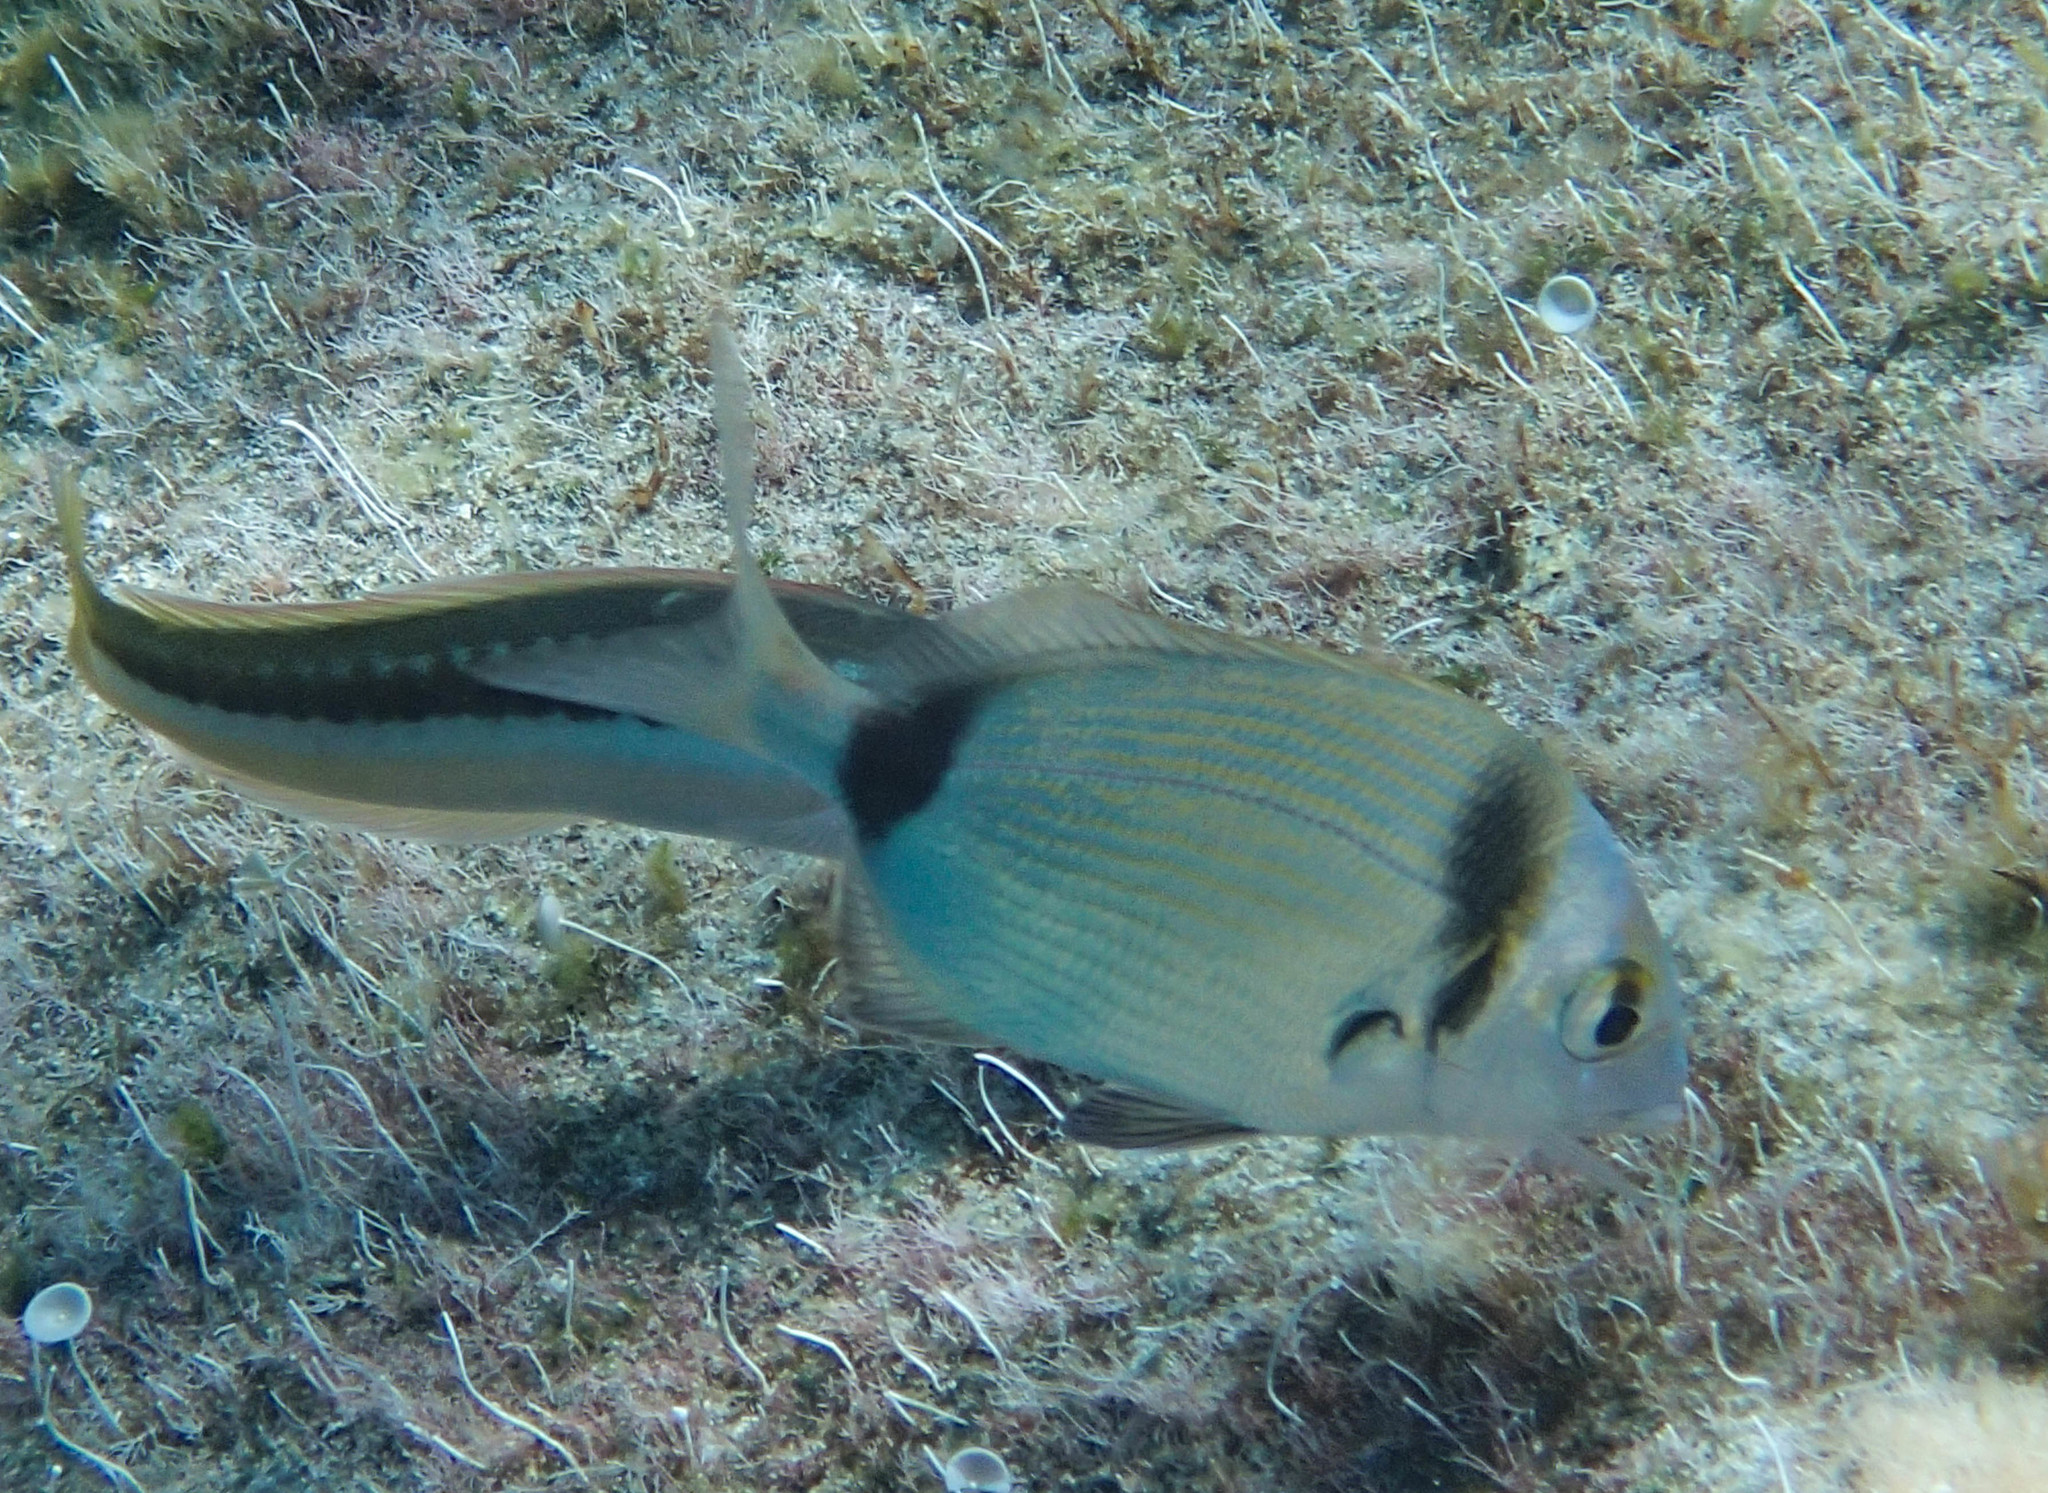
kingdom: Animalia
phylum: Chordata
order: Perciformes
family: Sparidae
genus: Diplodus
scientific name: Diplodus vulgaris
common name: Common two-banded seabream
